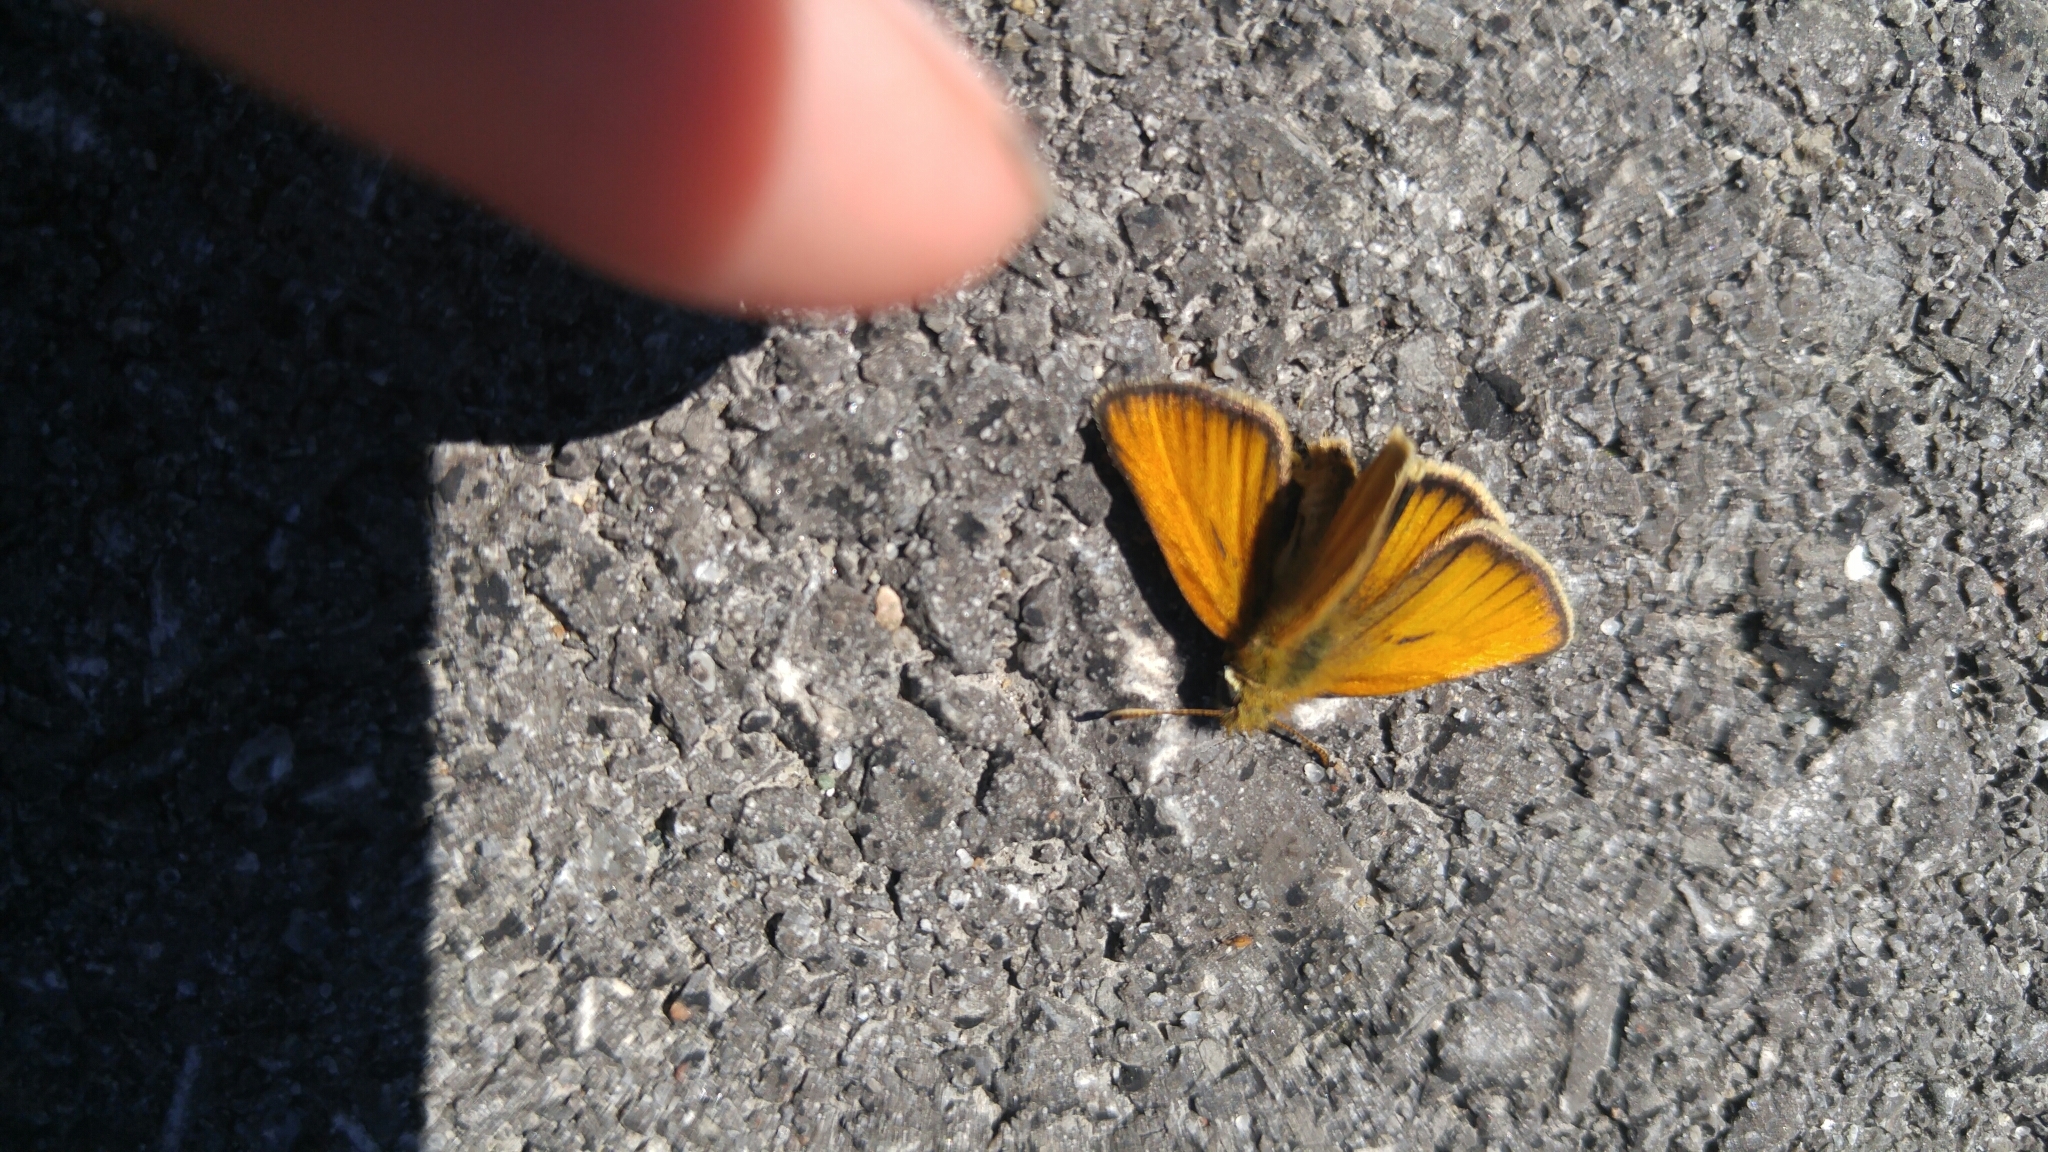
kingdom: Animalia
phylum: Arthropoda
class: Insecta
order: Lepidoptera
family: Hesperiidae
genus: Thymelicus
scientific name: Thymelicus lineola
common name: Essex skipper
